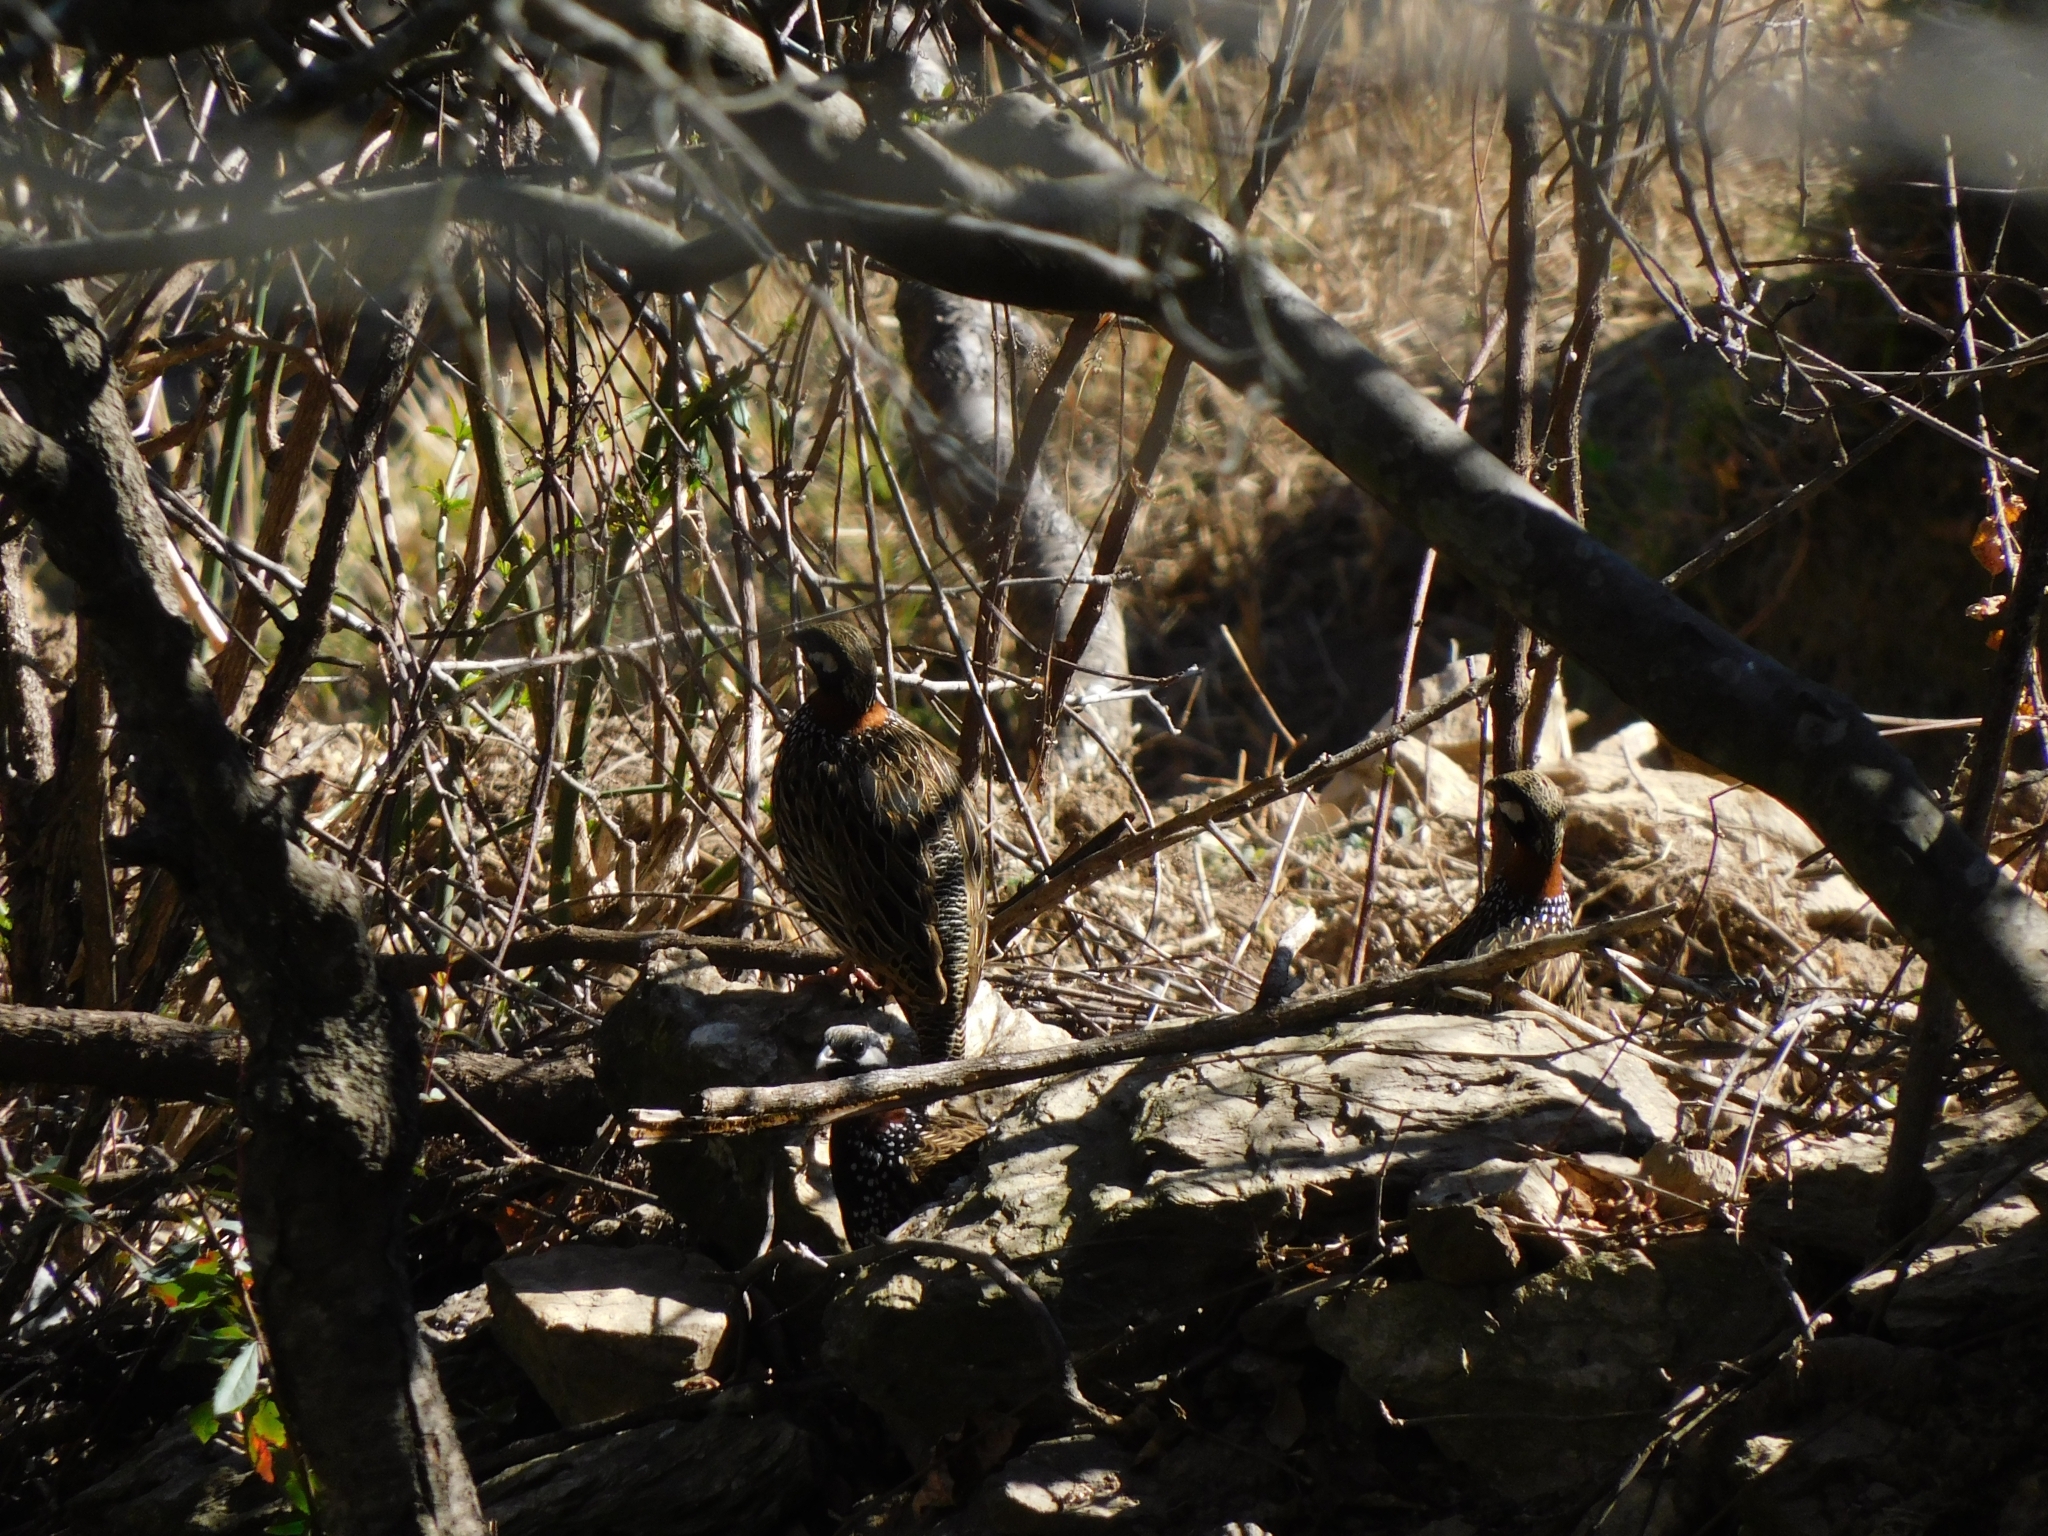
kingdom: Animalia
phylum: Chordata
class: Aves
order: Galliformes
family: Phasianidae
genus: Francolinus
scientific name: Francolinus francolinus
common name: Black francolin
